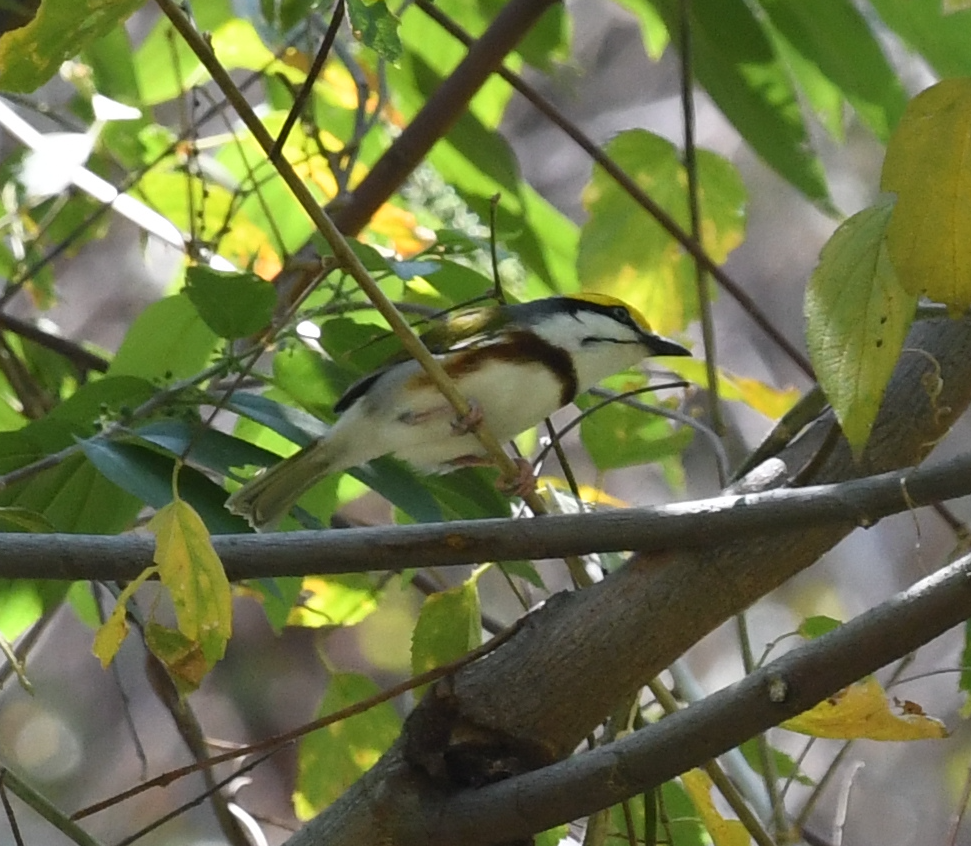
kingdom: Animalia
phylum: Chordata
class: Aves
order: Passeriformes
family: Vireonidae
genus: Vireolanius
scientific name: Vireolanius melitophrys
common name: Chestnut-sided shrike-vireo
